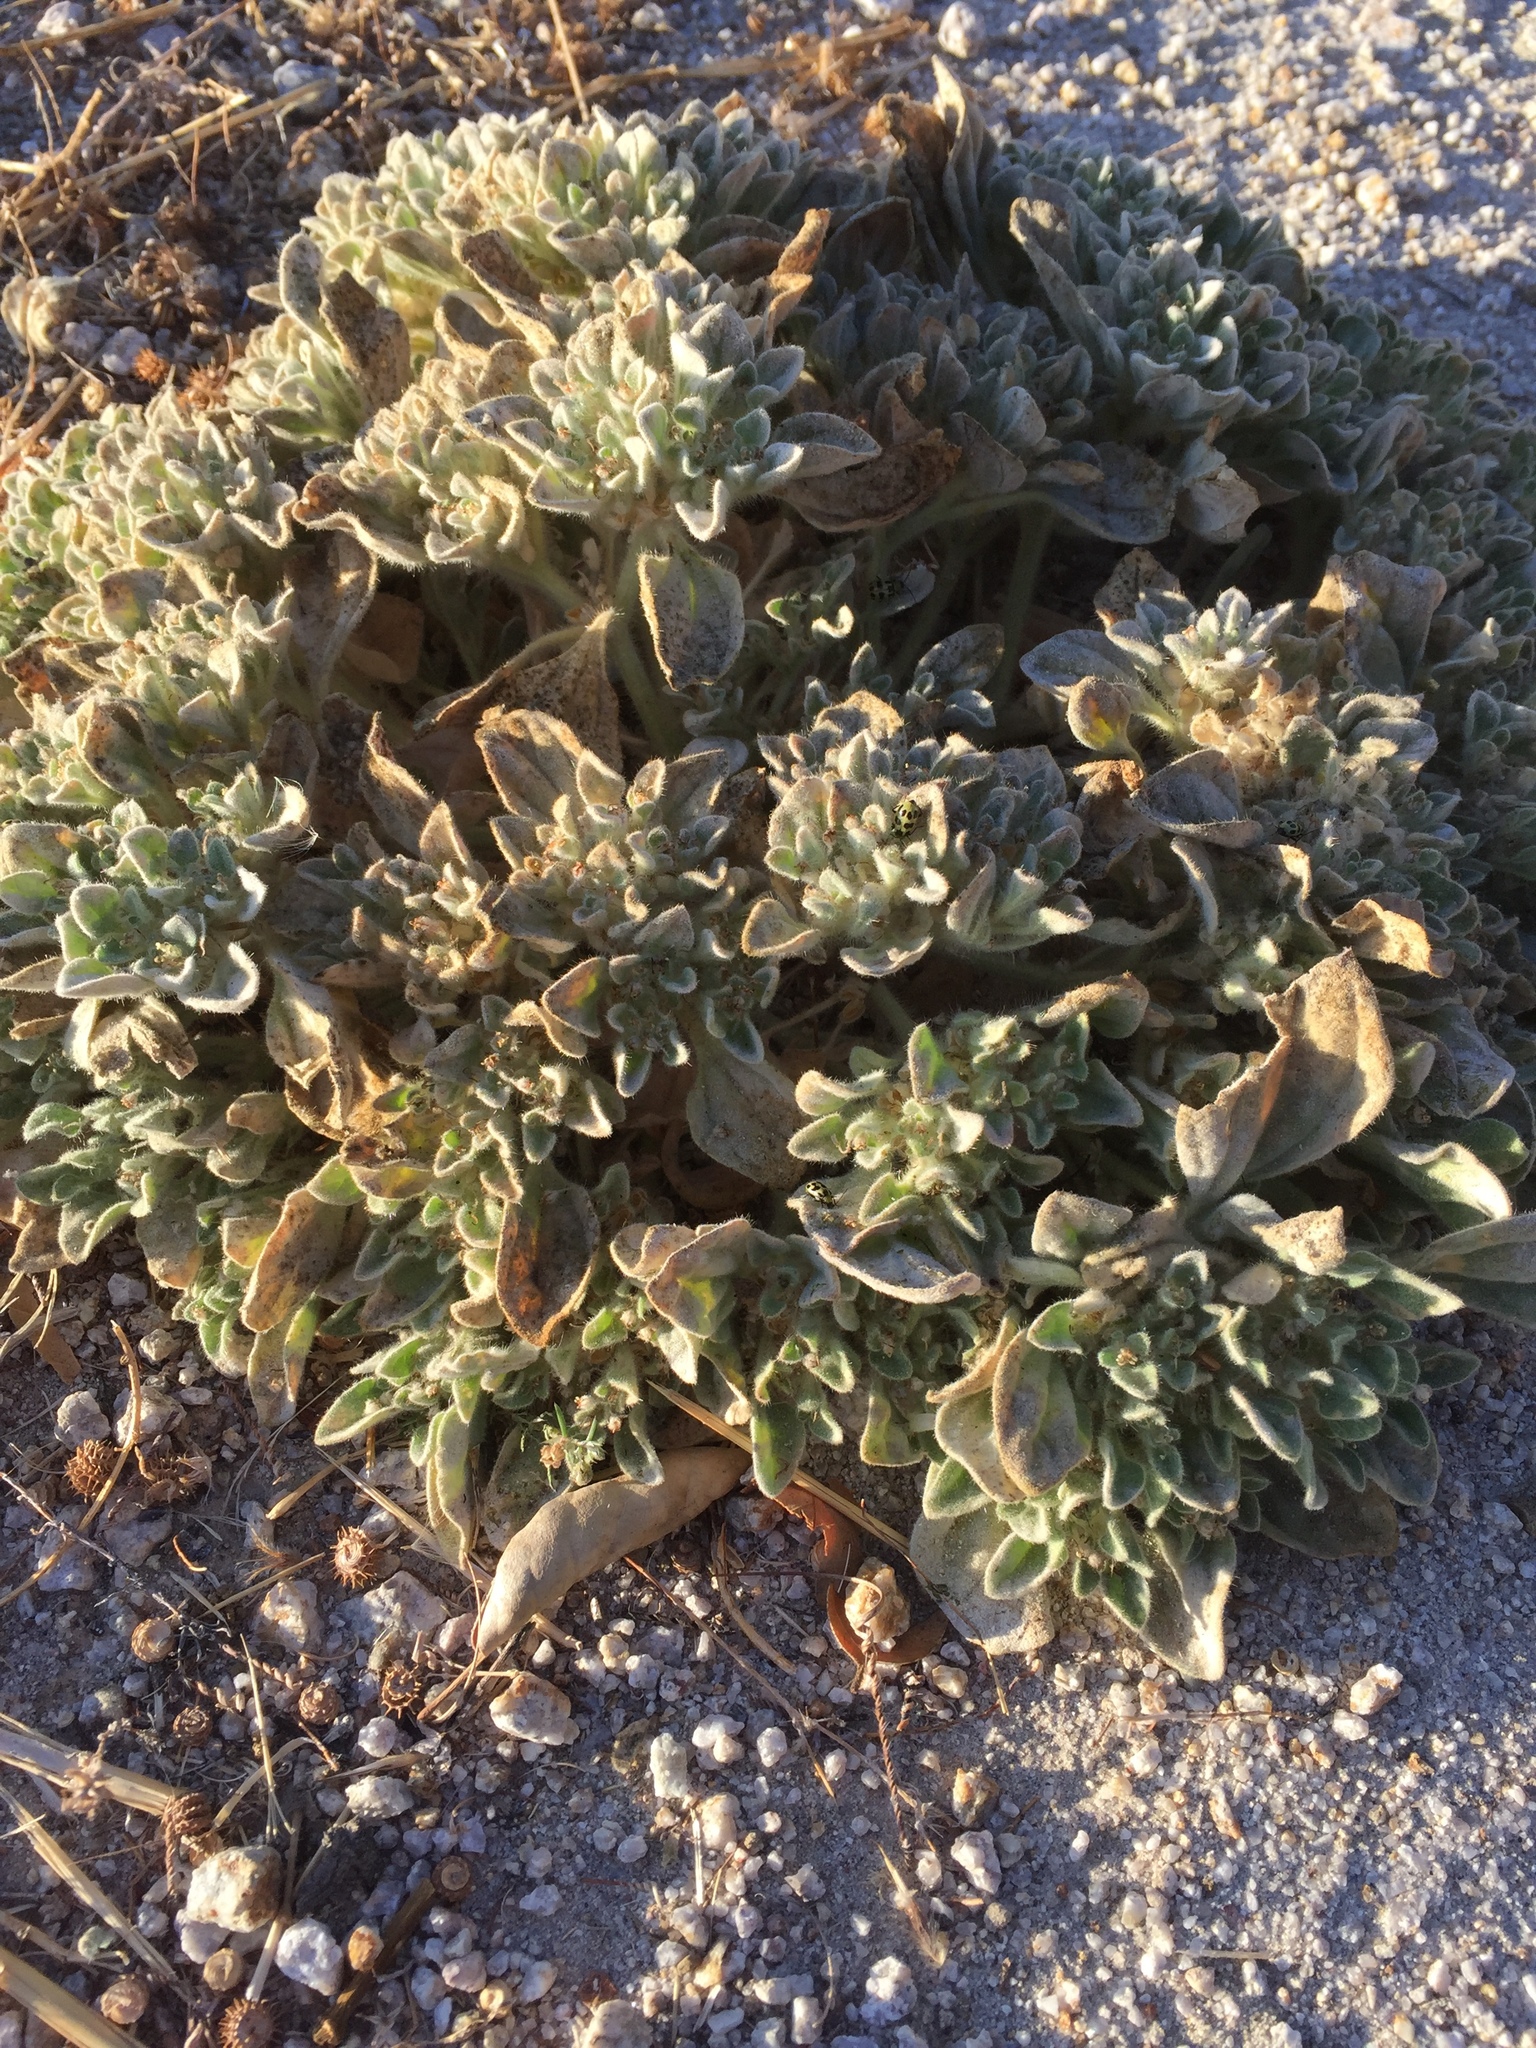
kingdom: Plantae
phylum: Tracheophyta
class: Magnoliopsida
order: Malpighiales
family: Euphorbiaceae
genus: Croton
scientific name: Croton setiger
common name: Dove weed
